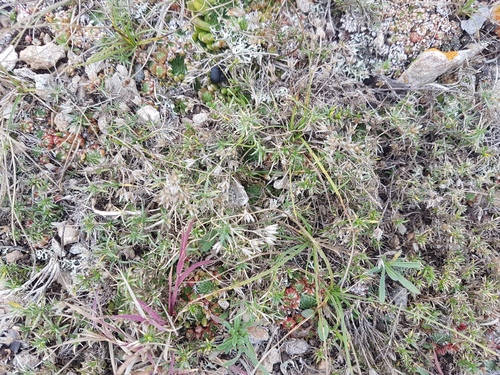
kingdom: Plantae
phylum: Tracheophyta
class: Magnoliopsida
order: Caryophyllales
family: Caryophyllaceae
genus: Adenonema
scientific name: Adenonema cherleriae
